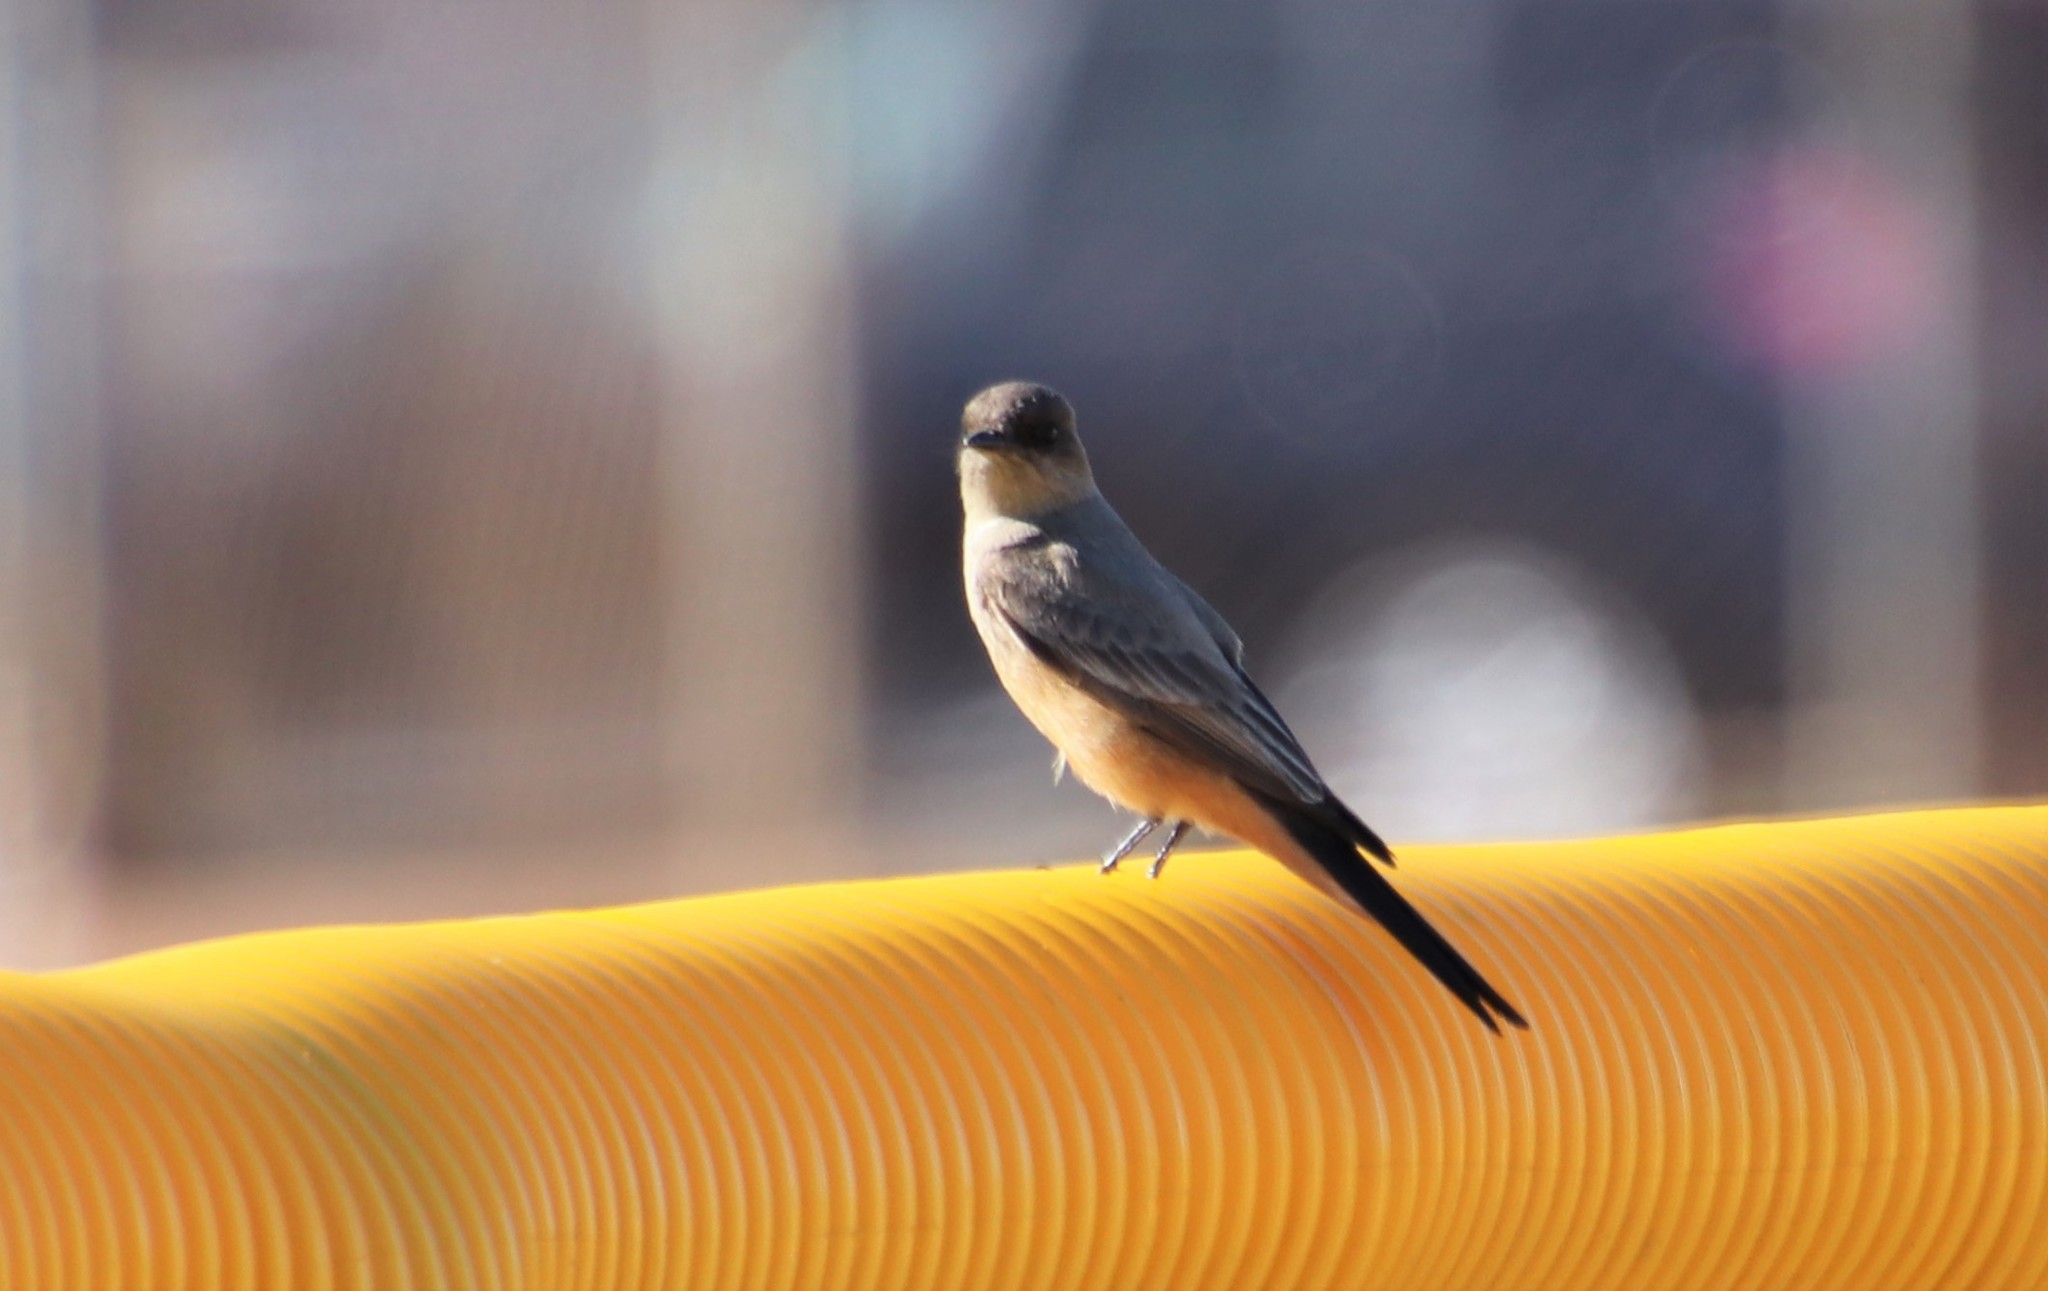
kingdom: Animalia
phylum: Chordata
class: Aves
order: Passeriformes
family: Tyrannidae
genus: Sayornis
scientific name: Sayornis saya
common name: Say's phoebe
